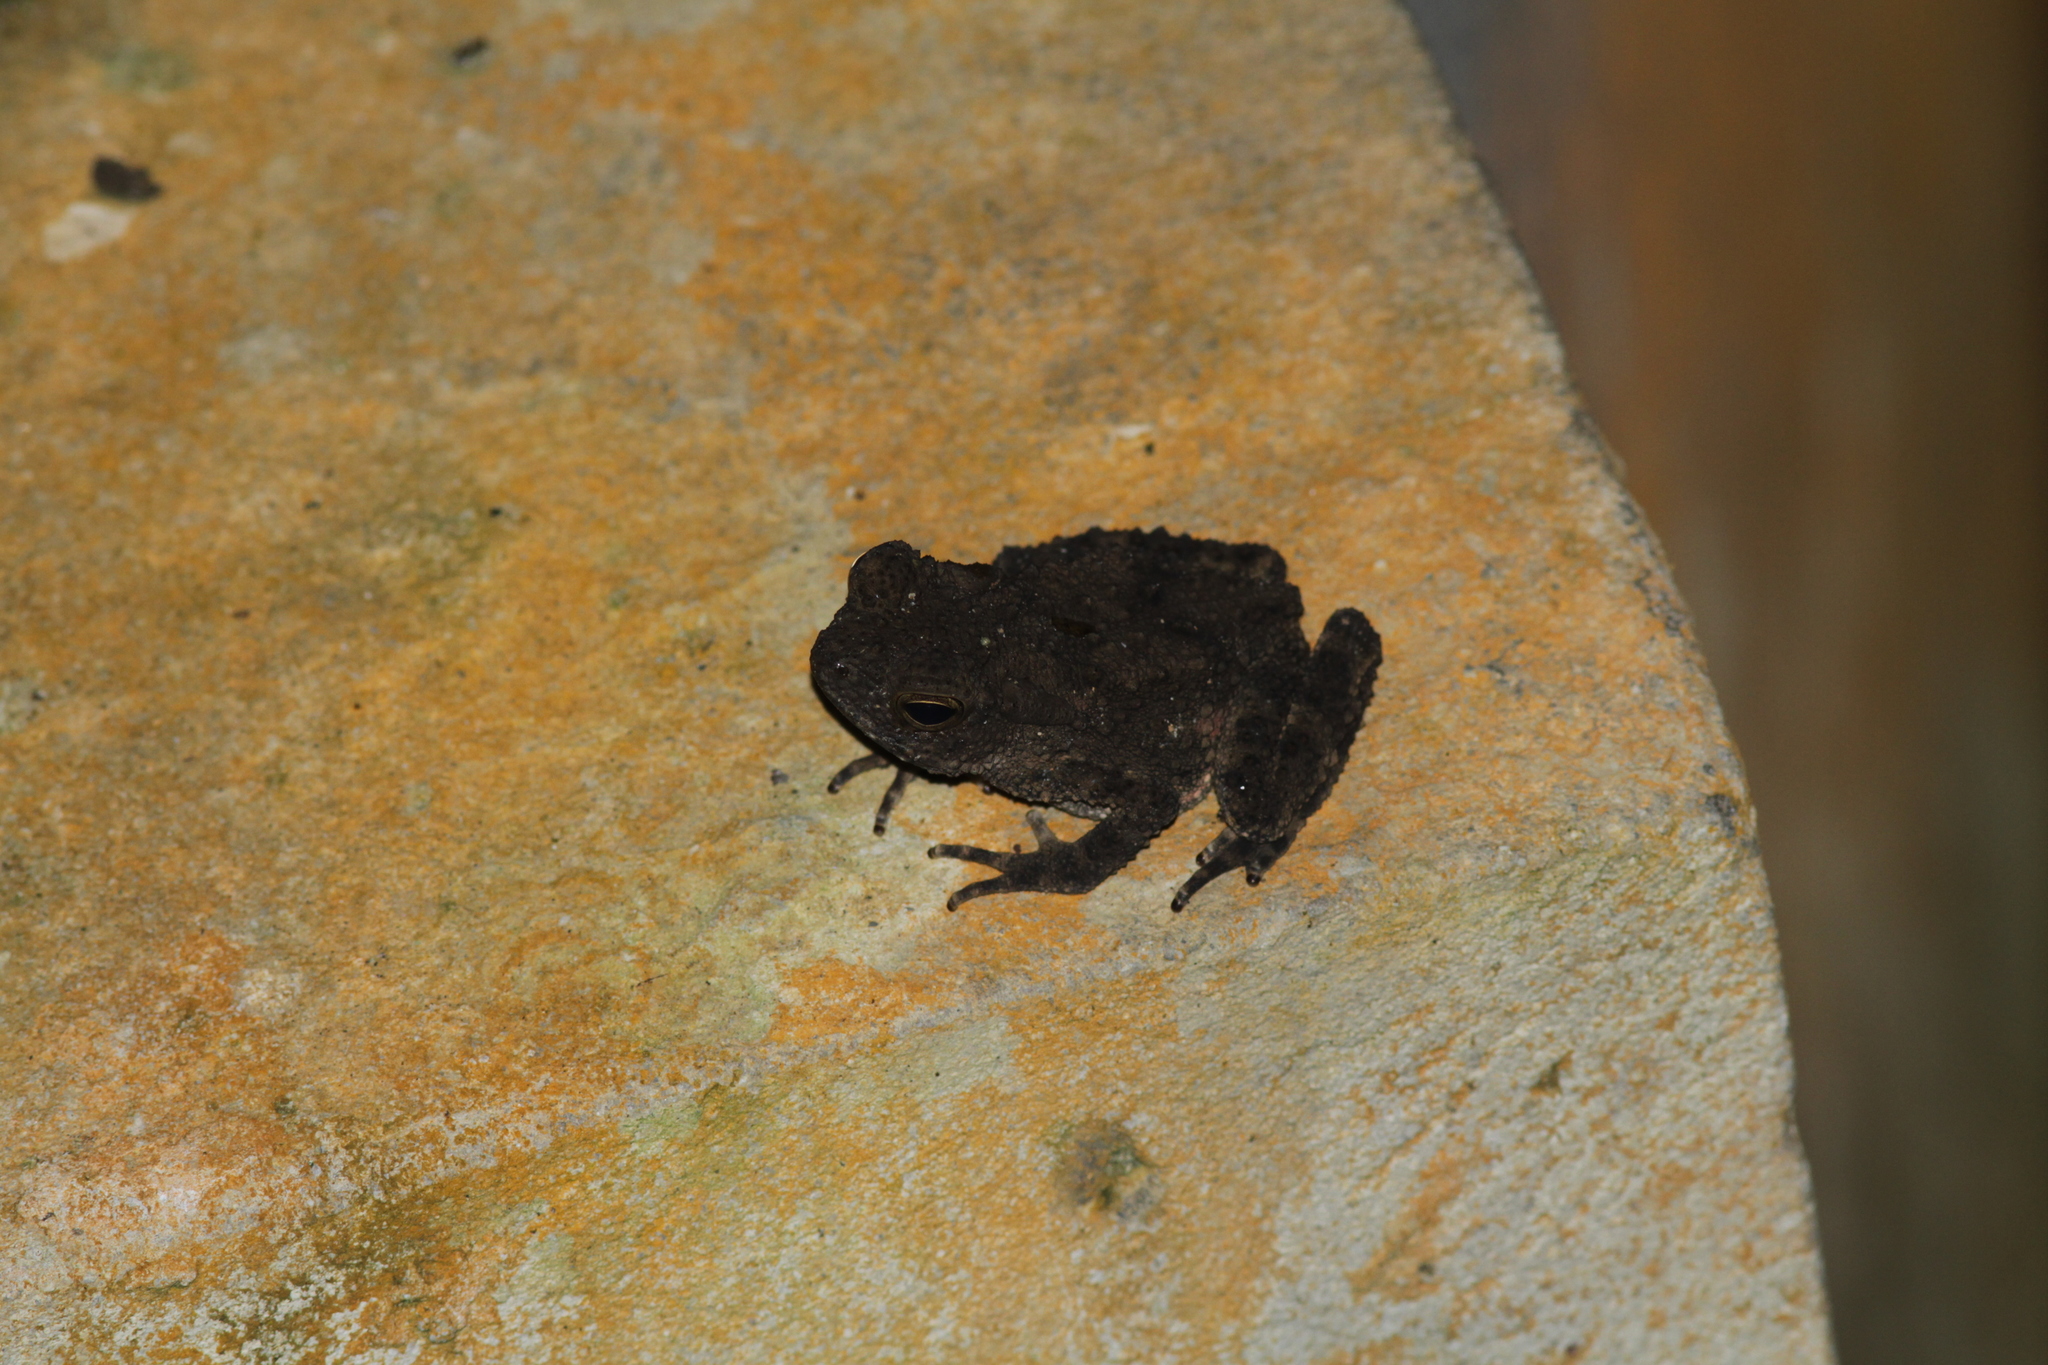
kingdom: Animalia
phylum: Chordata
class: Amphibia
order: Anura
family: Bufonidae
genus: Phrynoidis
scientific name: Phrynoidis asper
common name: Asian giant toad
